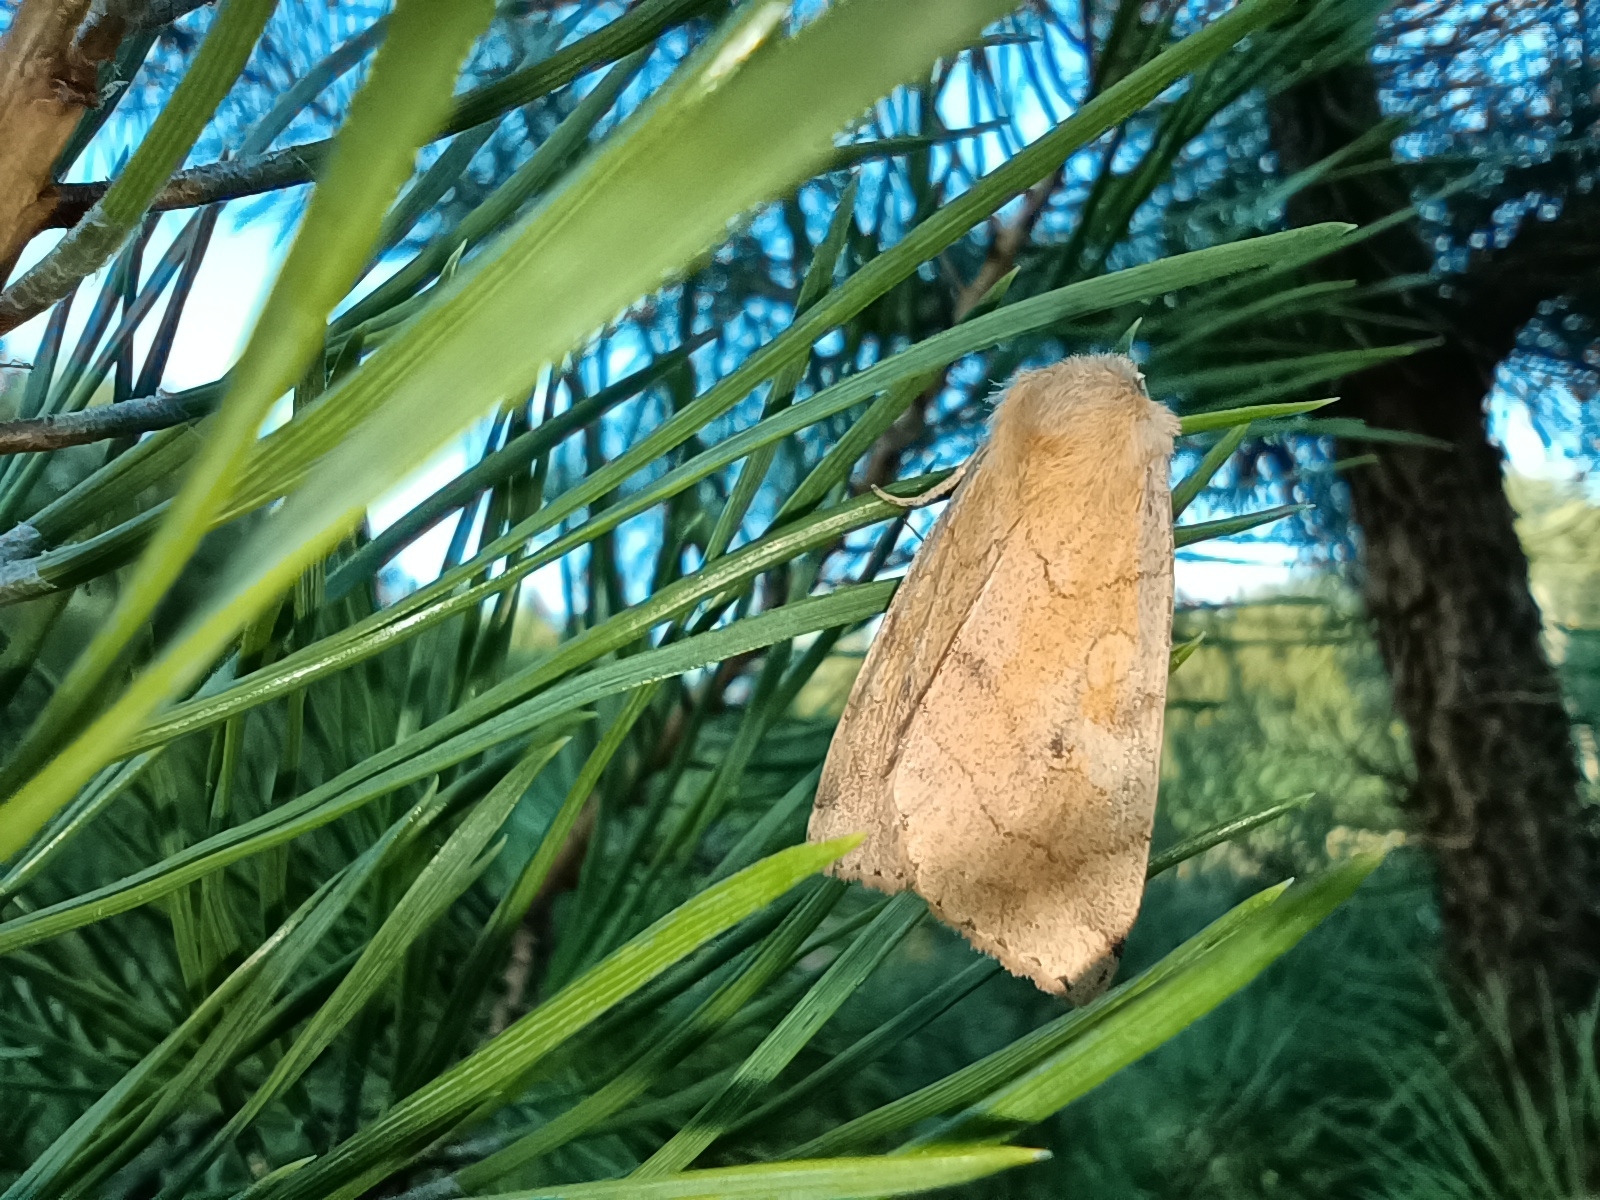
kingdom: Animalia
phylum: Arthropoda
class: Insecta
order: Lepidoptera
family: Noctuidae
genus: Enargia
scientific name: Enargia paleacea
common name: Angle-striped sallow
